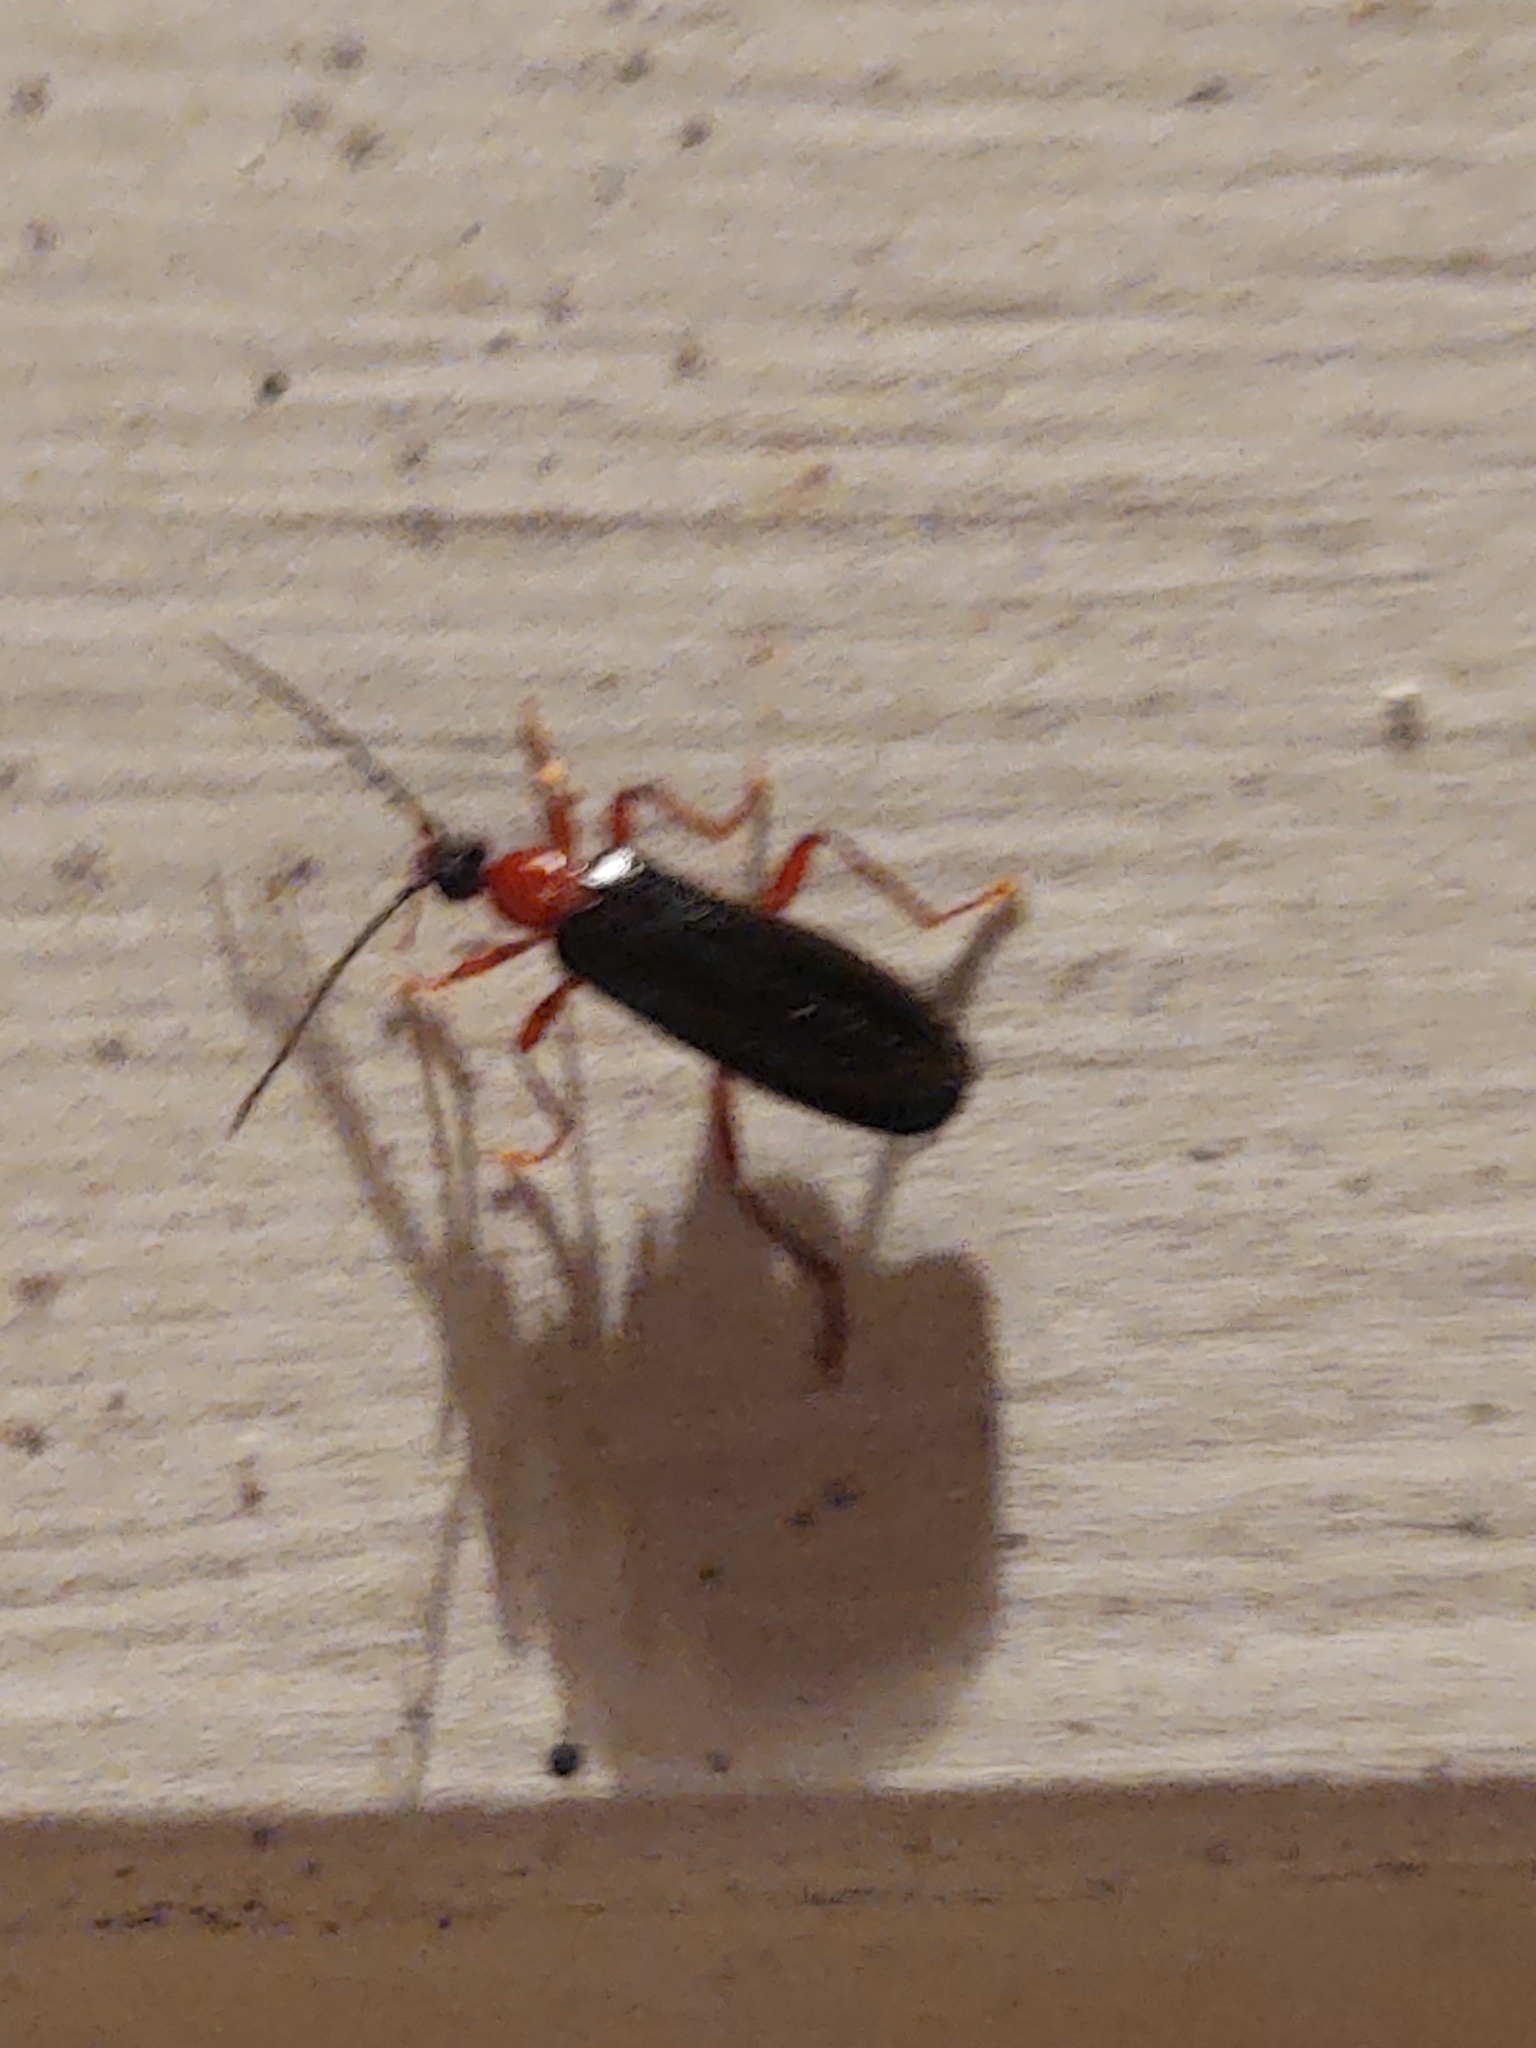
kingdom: Animalia
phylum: Arthropoda
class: Insecta
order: Coleoptera
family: Pyrochroidae
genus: Dendroides
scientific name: Dendroides canadensis
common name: Canada fire-colored beetle
